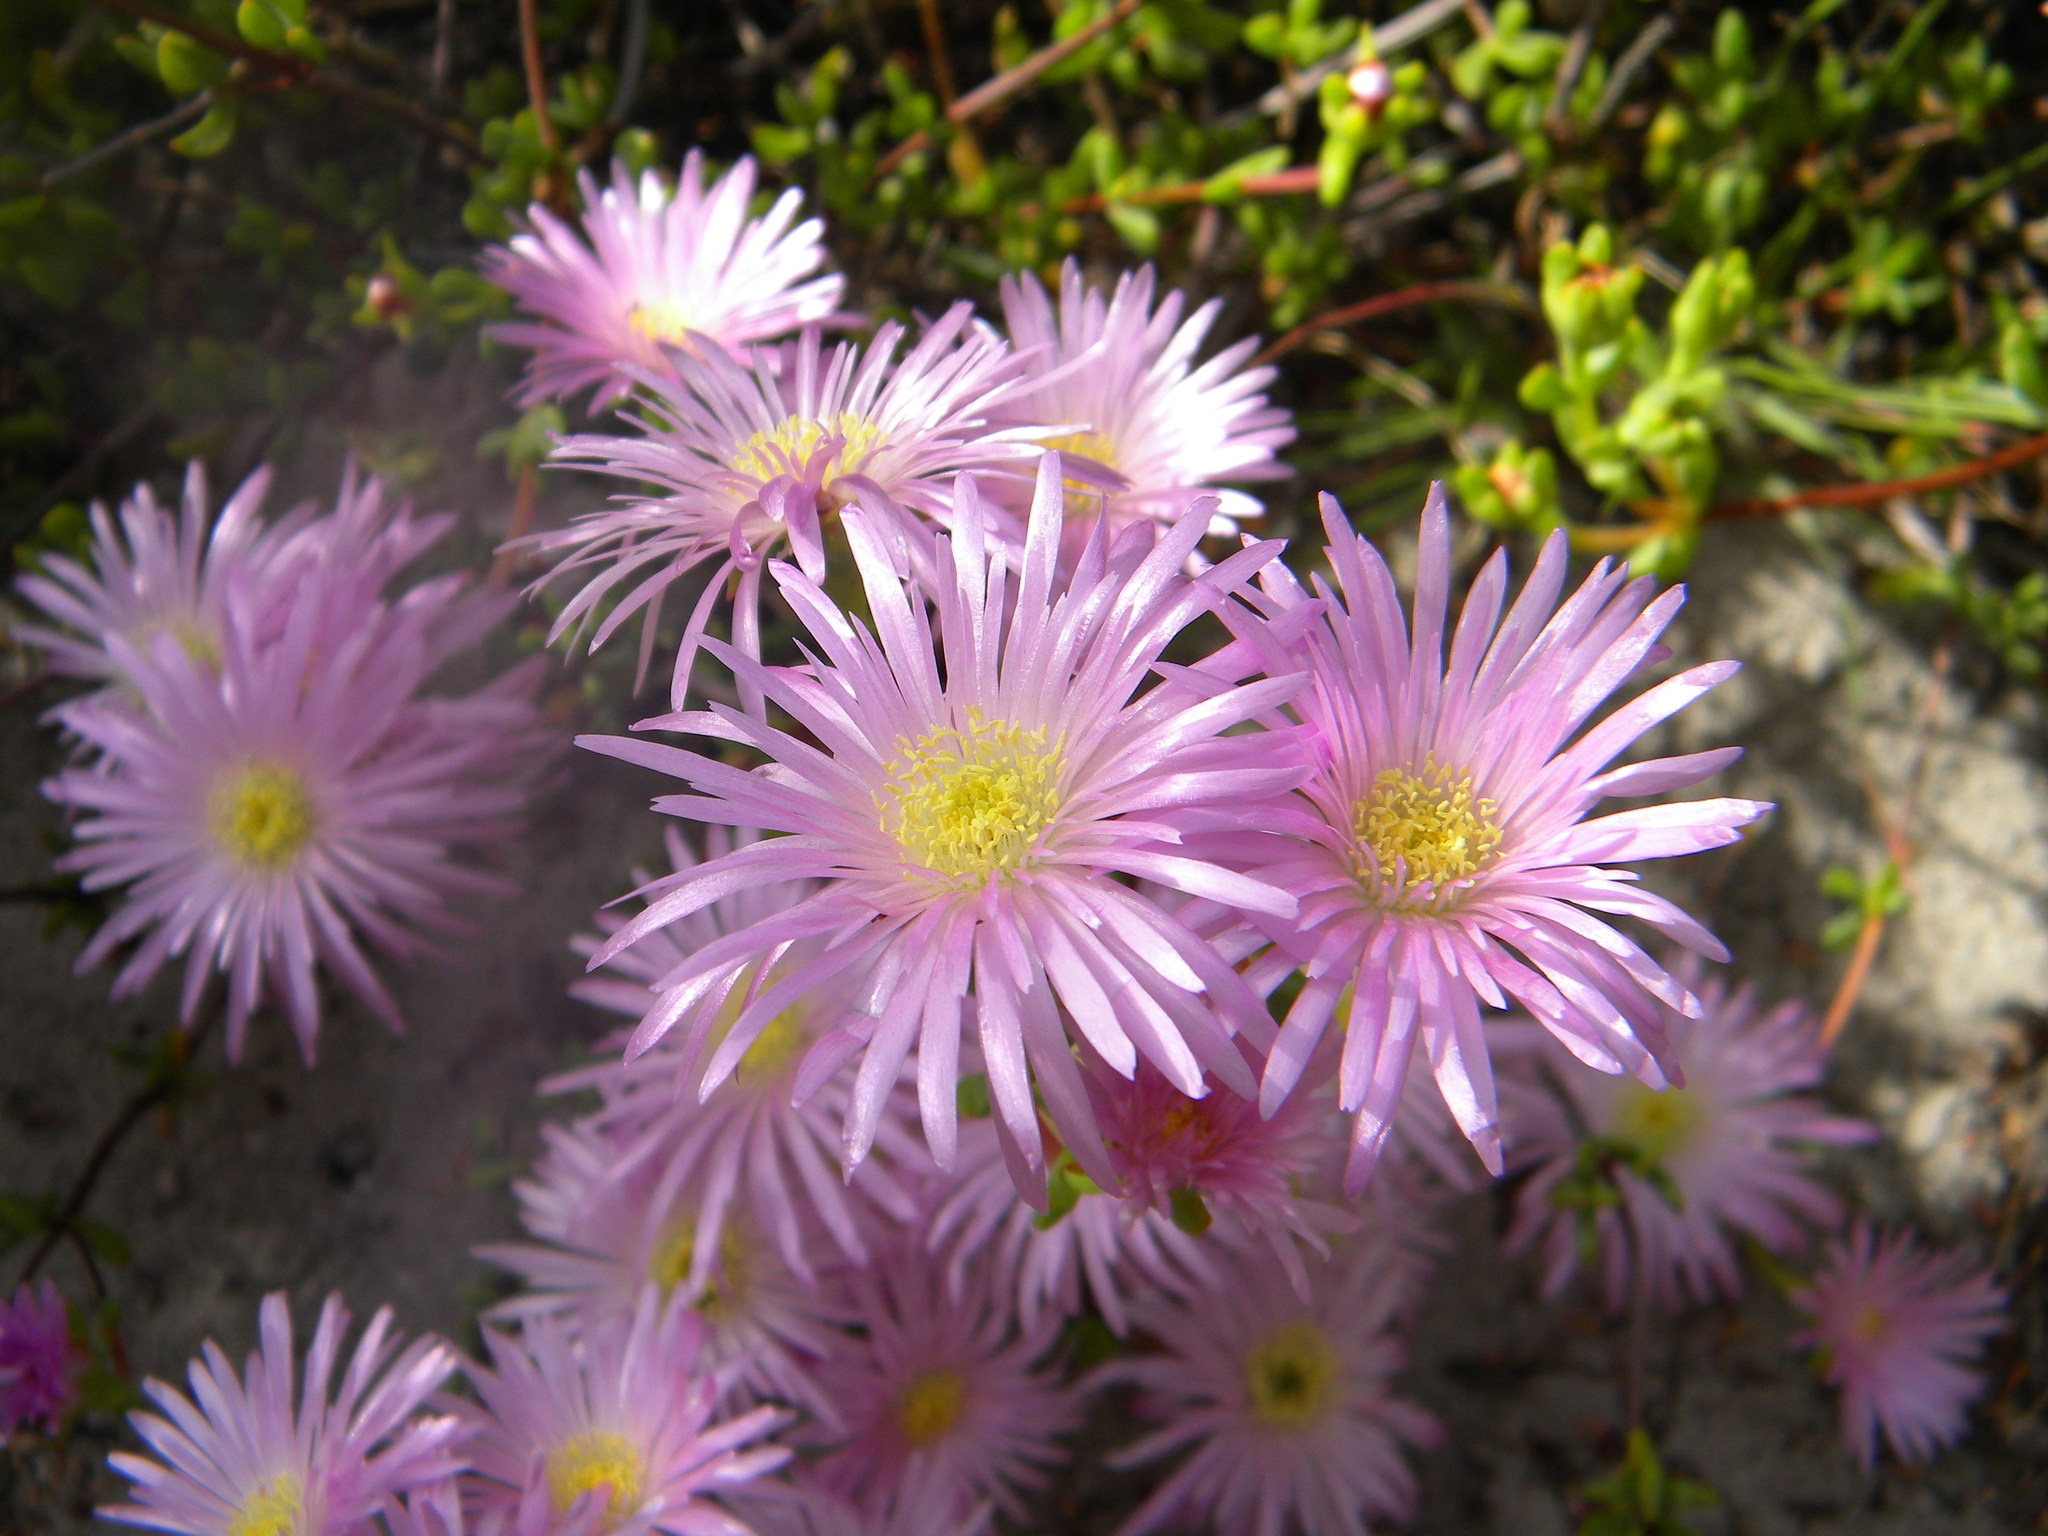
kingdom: Plantae
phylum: Tracheophyta
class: Magnoliopsida
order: Caryophyllales
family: Aizoaceae
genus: Oscularia
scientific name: Oscularia falciformis
